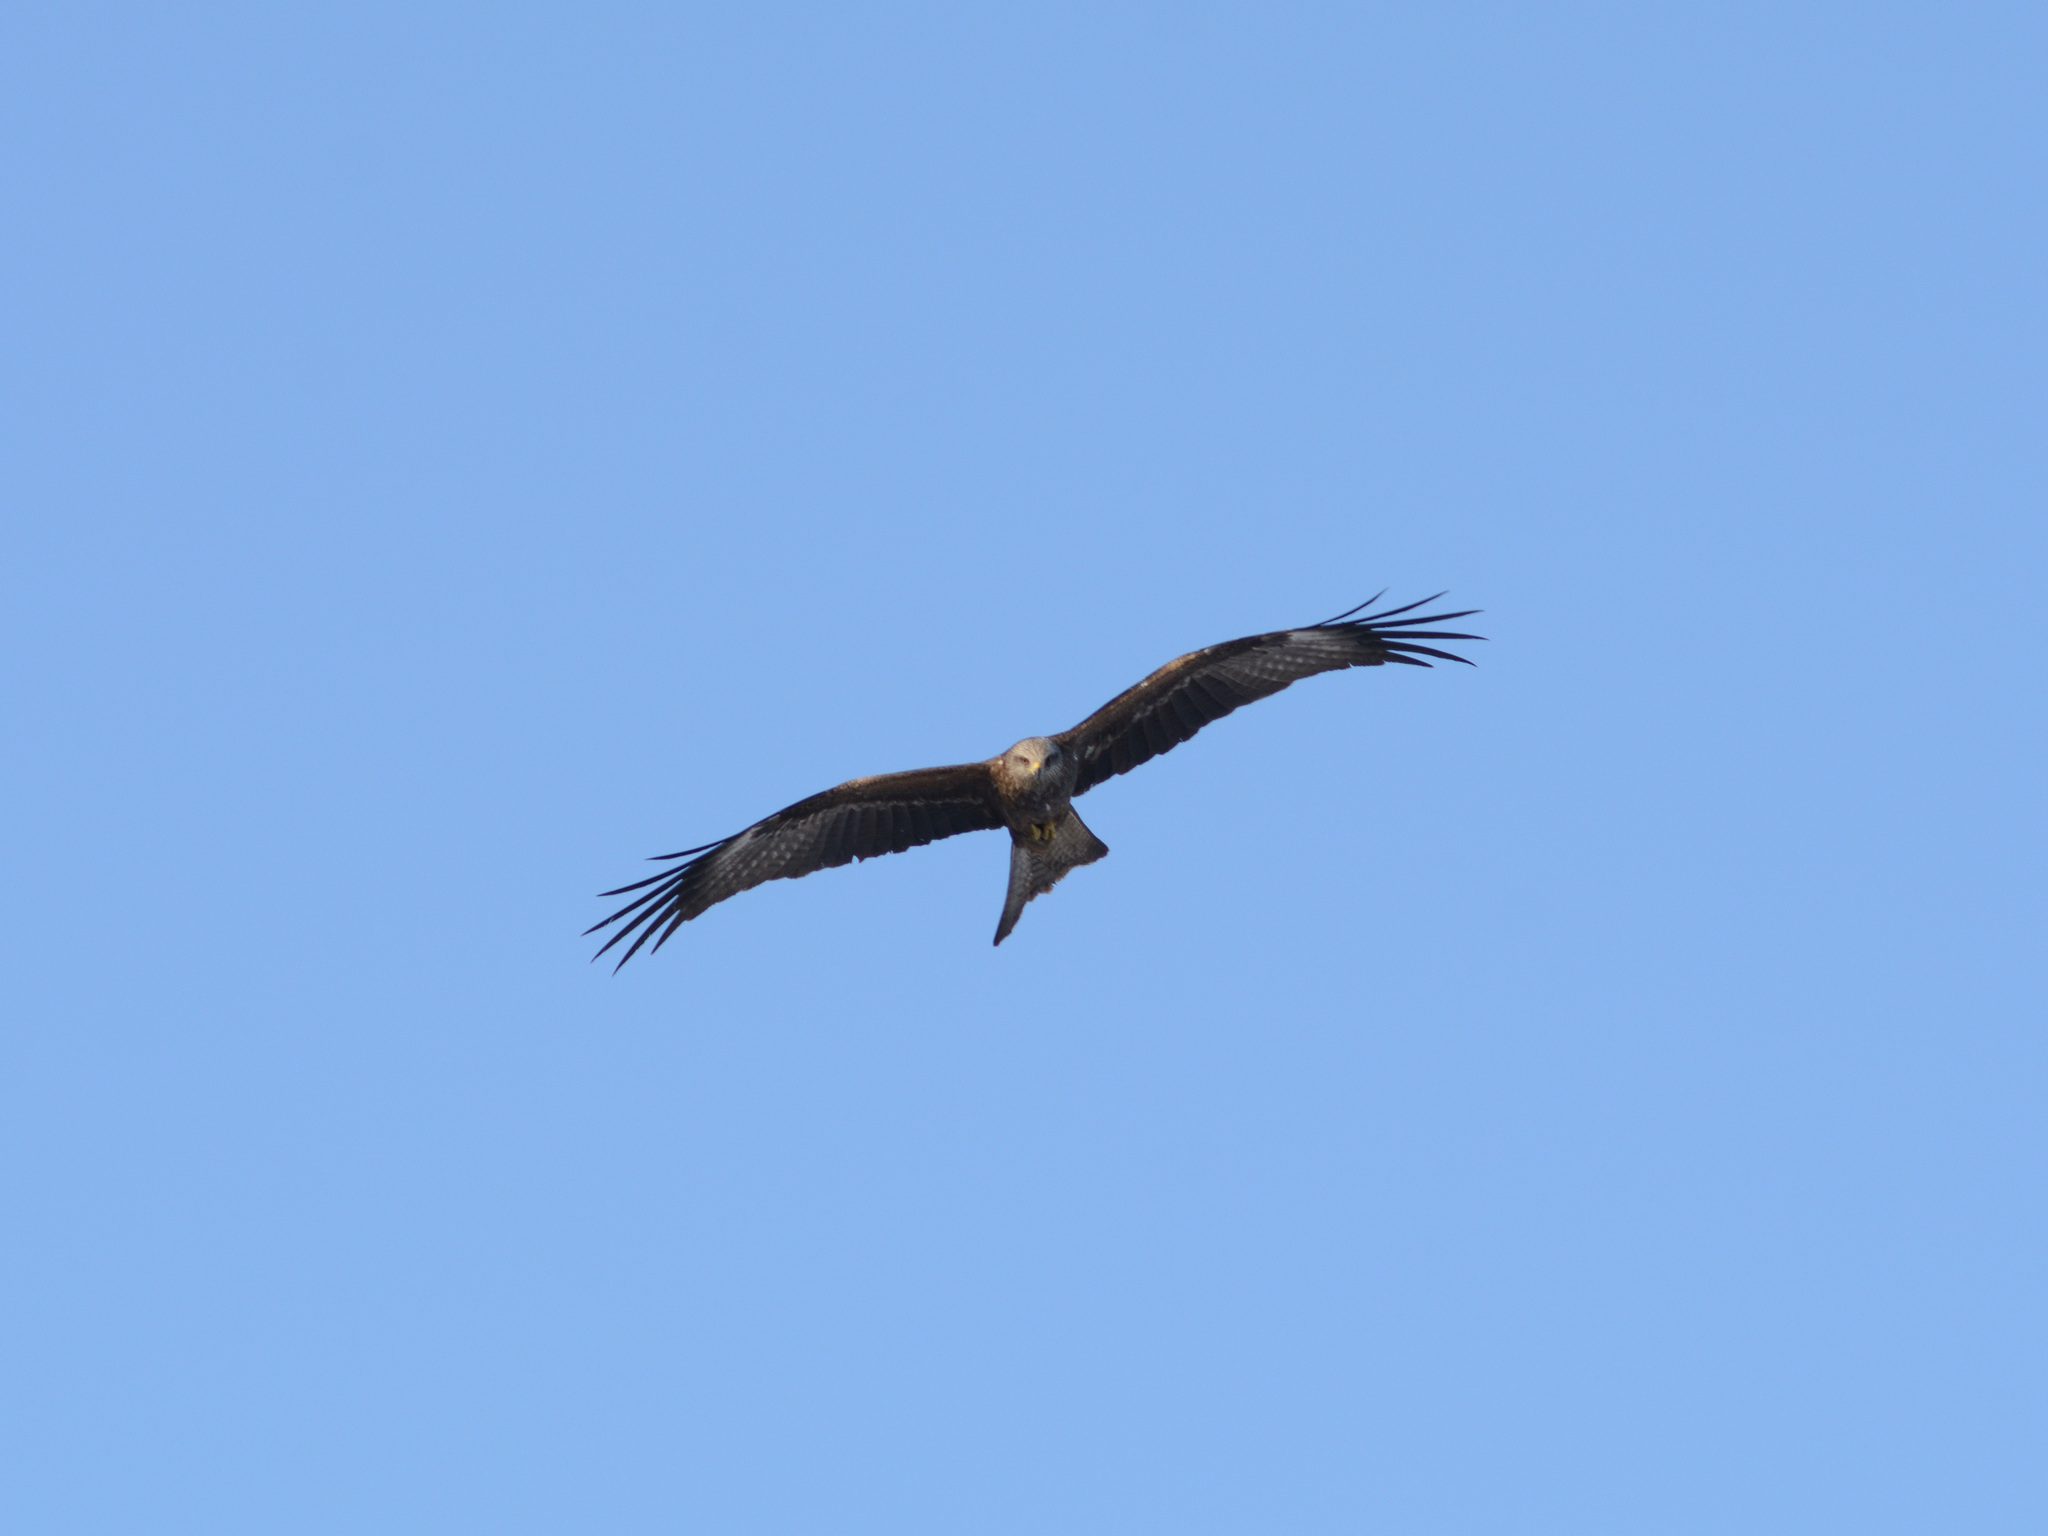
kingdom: Animalia
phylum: Chordata
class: Aves
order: Accipitriformes
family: Accipitridae
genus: Milvus
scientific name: Milvus migrans
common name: Black kite
